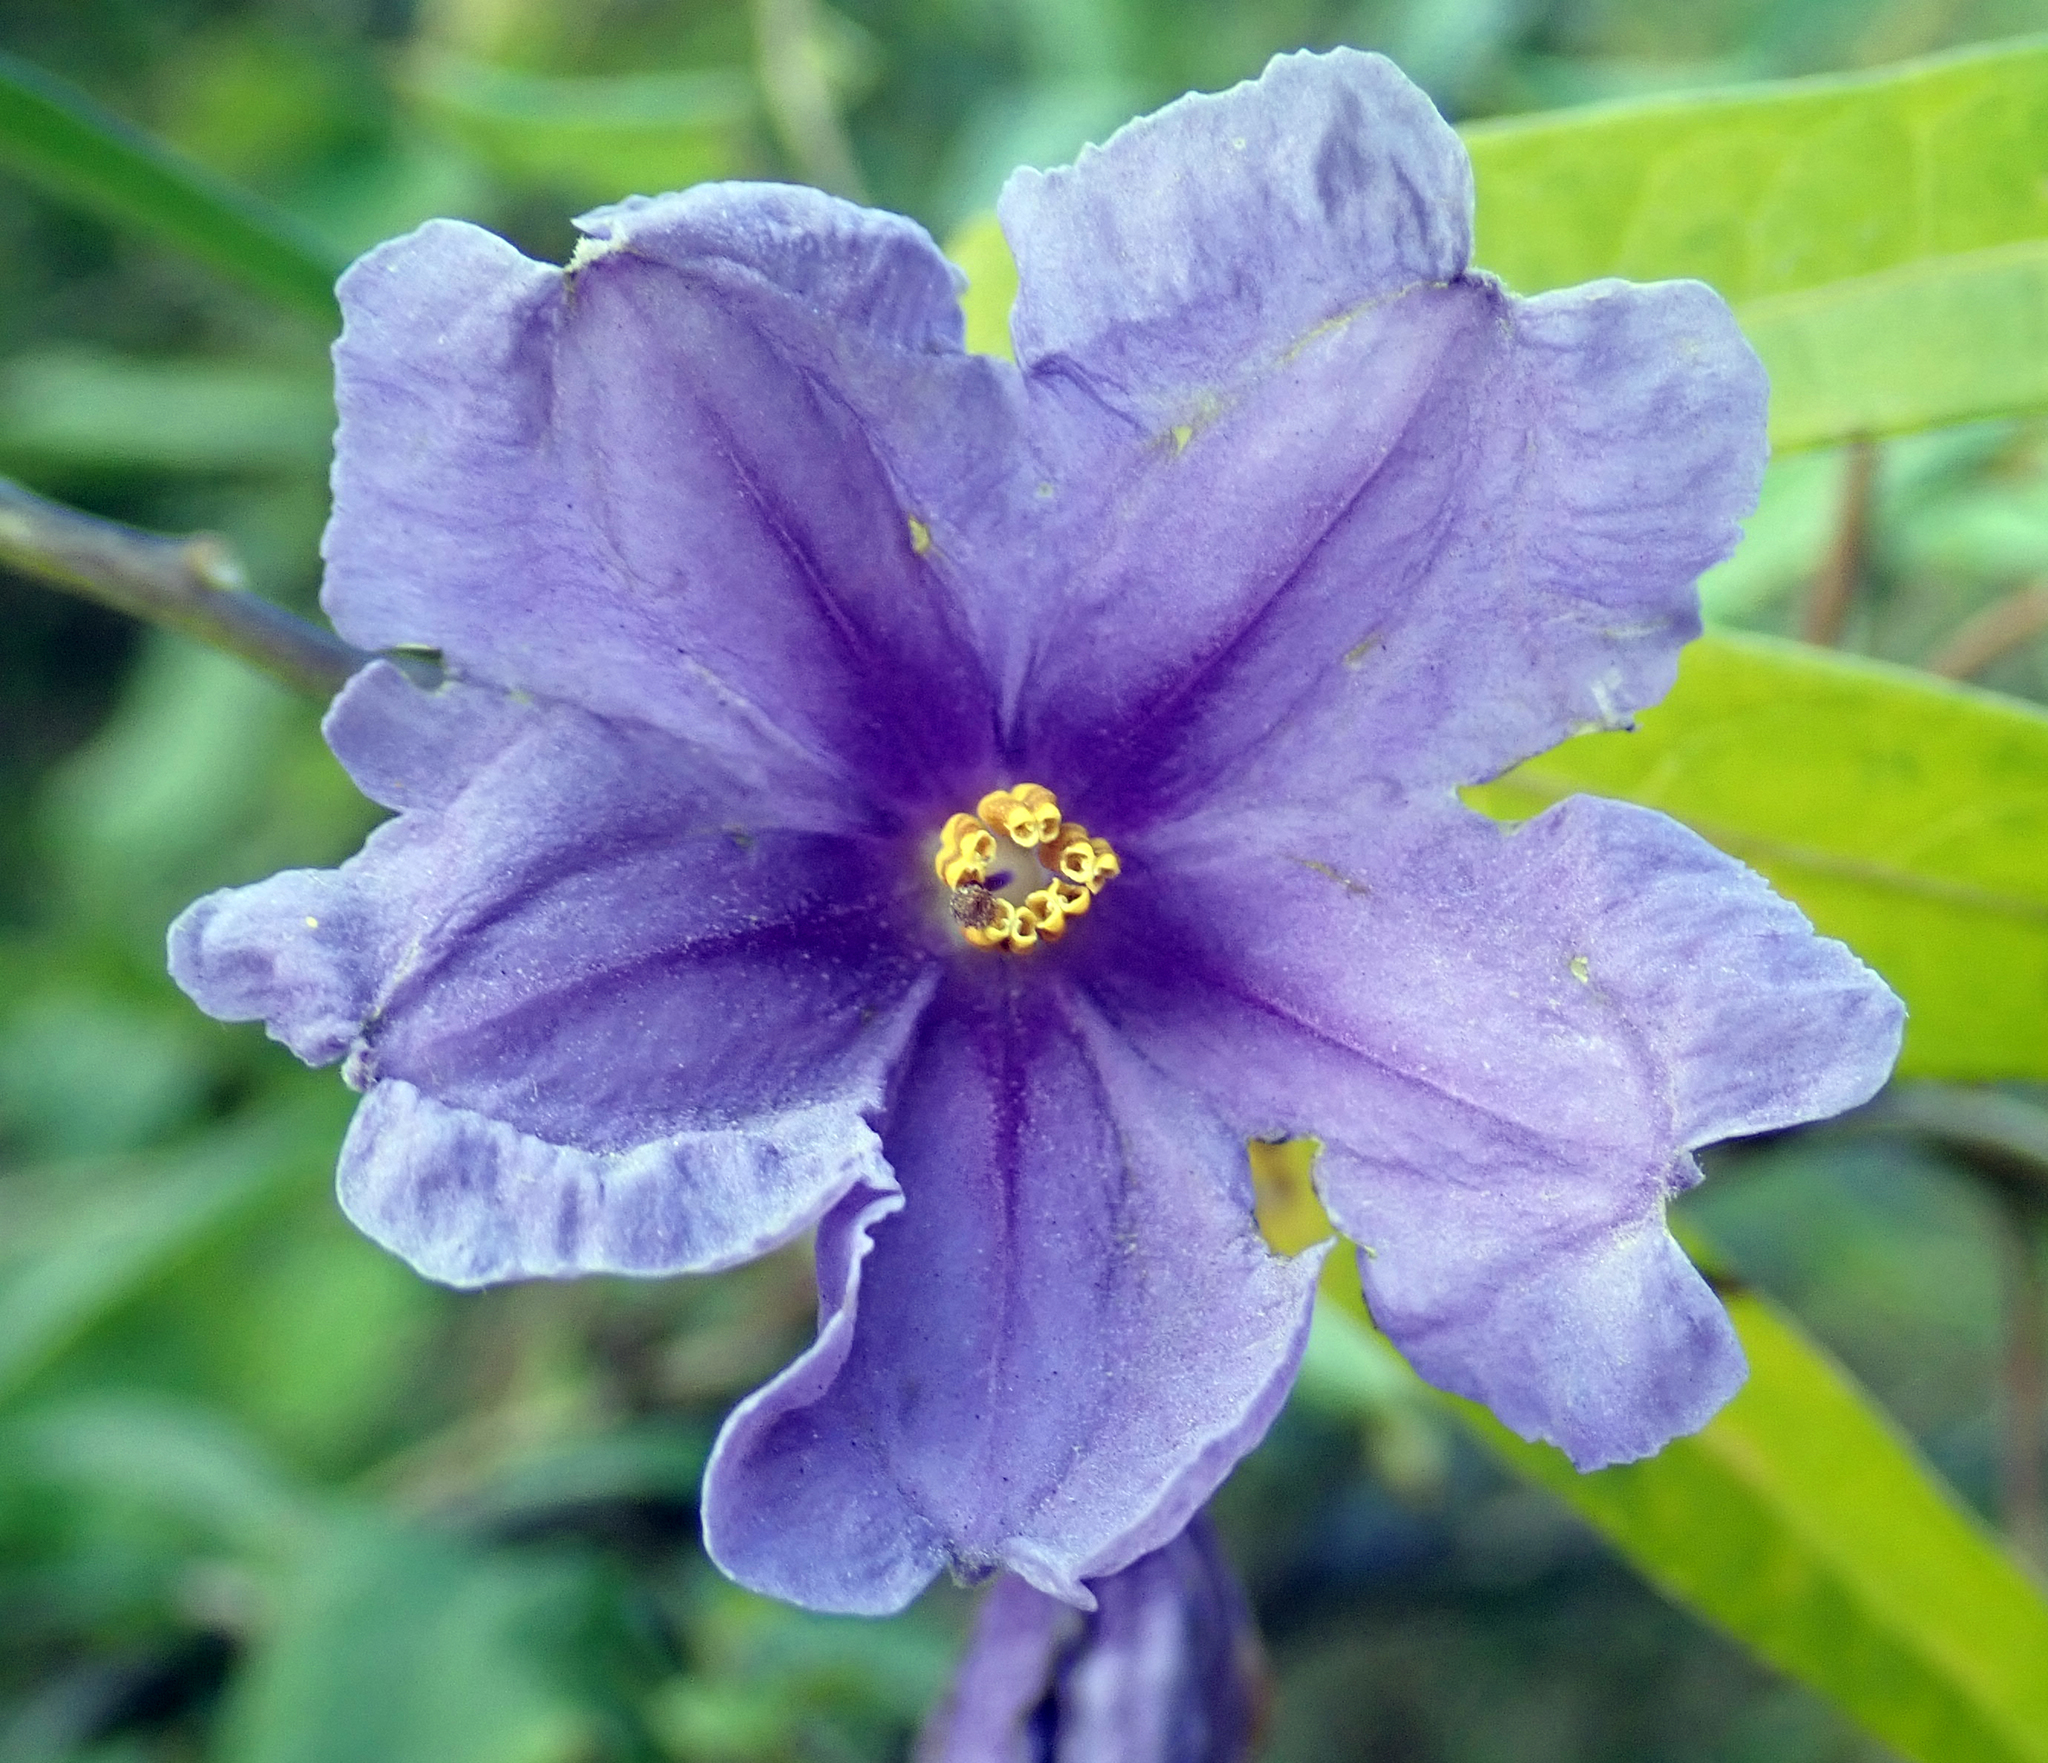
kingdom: Plantae
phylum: Tracheophyta
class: Magnoliopsida
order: Solanales
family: Solanaceae
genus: Solanum
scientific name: Solanum laciniatum
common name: Kangaroo-apple
